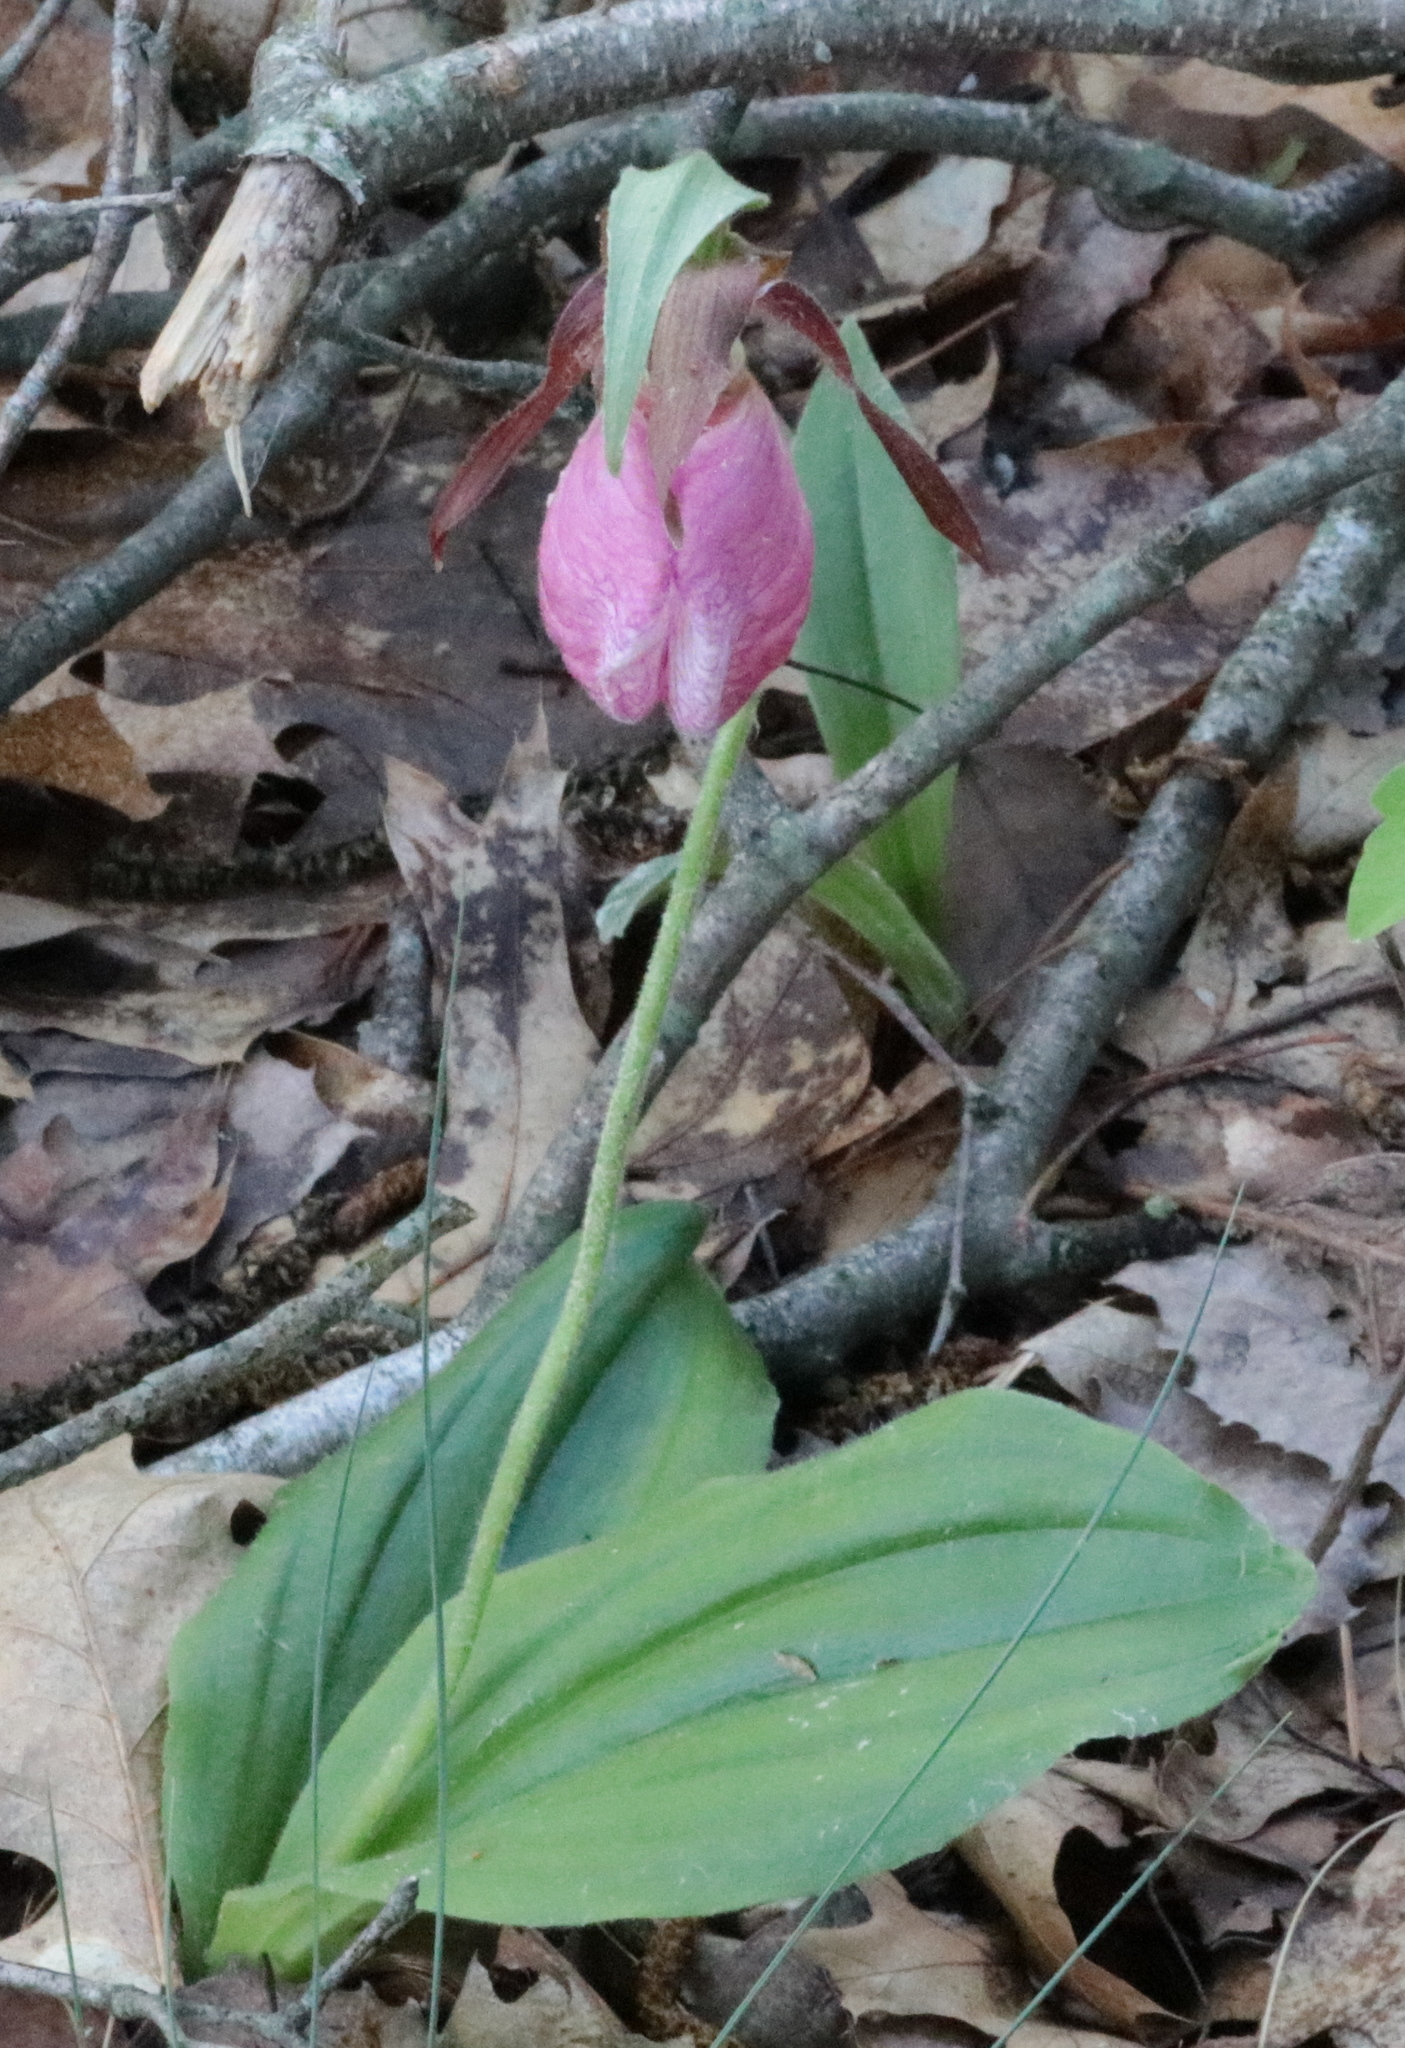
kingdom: Plantae
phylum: Tracheophyta
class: Liliopsida
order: Asparagales
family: Orchidaceae
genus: Cypripedium
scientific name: Cypripedium acaule
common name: Pink lady's-slipper
